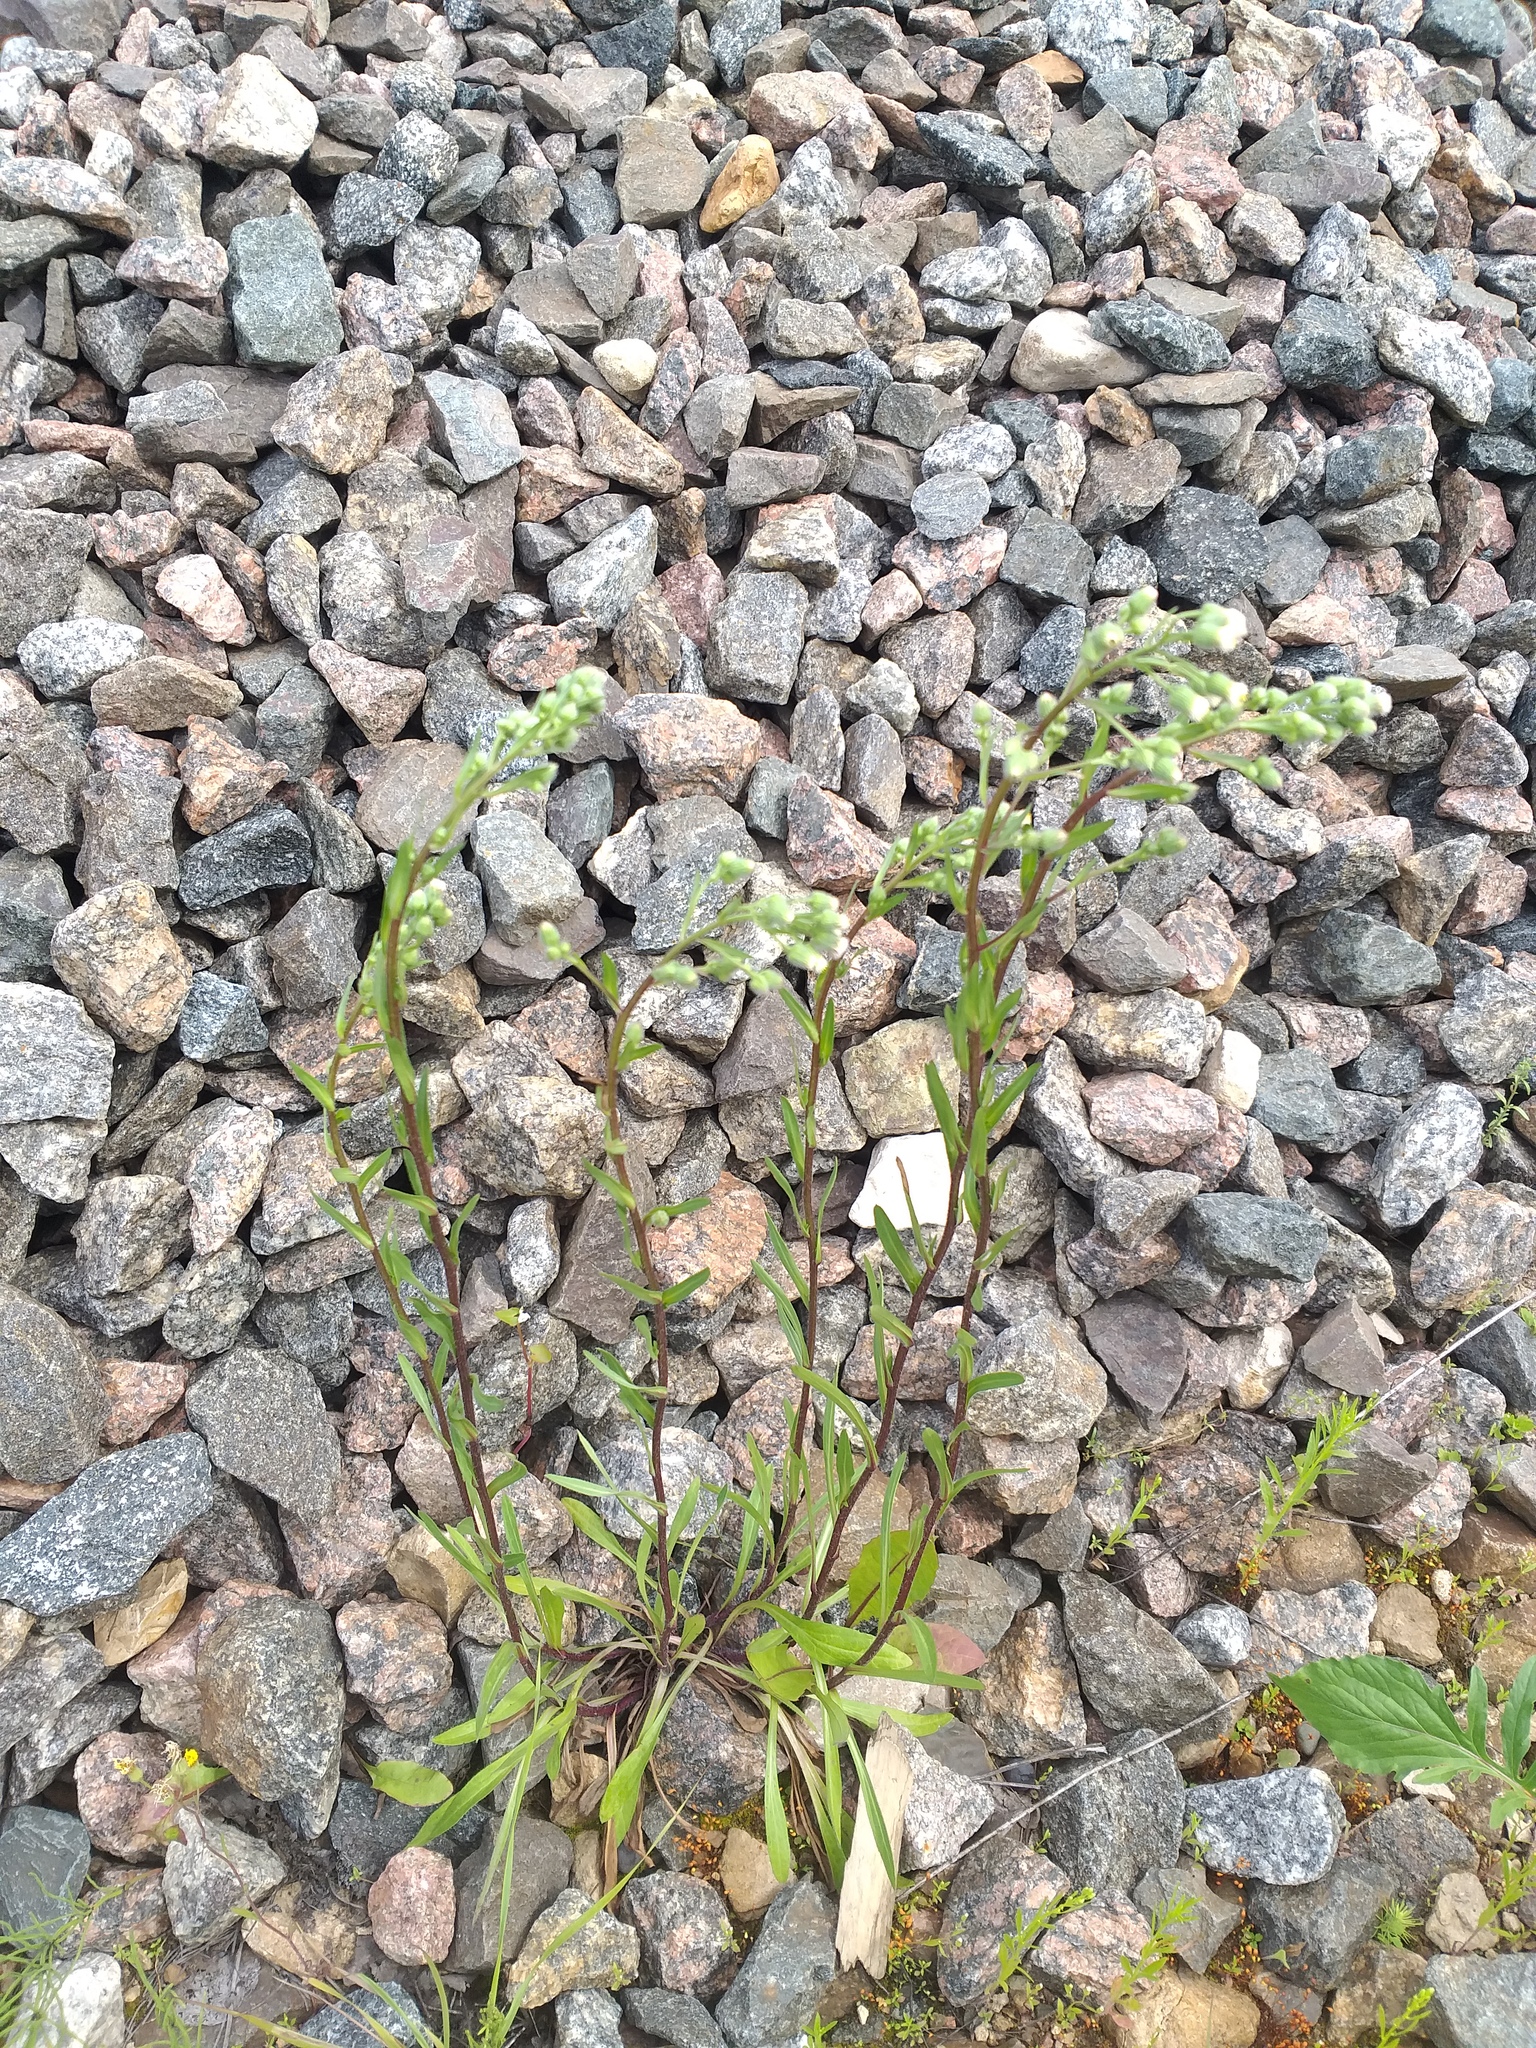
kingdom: Plantae
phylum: Tracheophyta
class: Magnoliopsida
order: Asterales
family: Asteraceae
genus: Erigeron
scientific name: Erigeron droebachiensis
